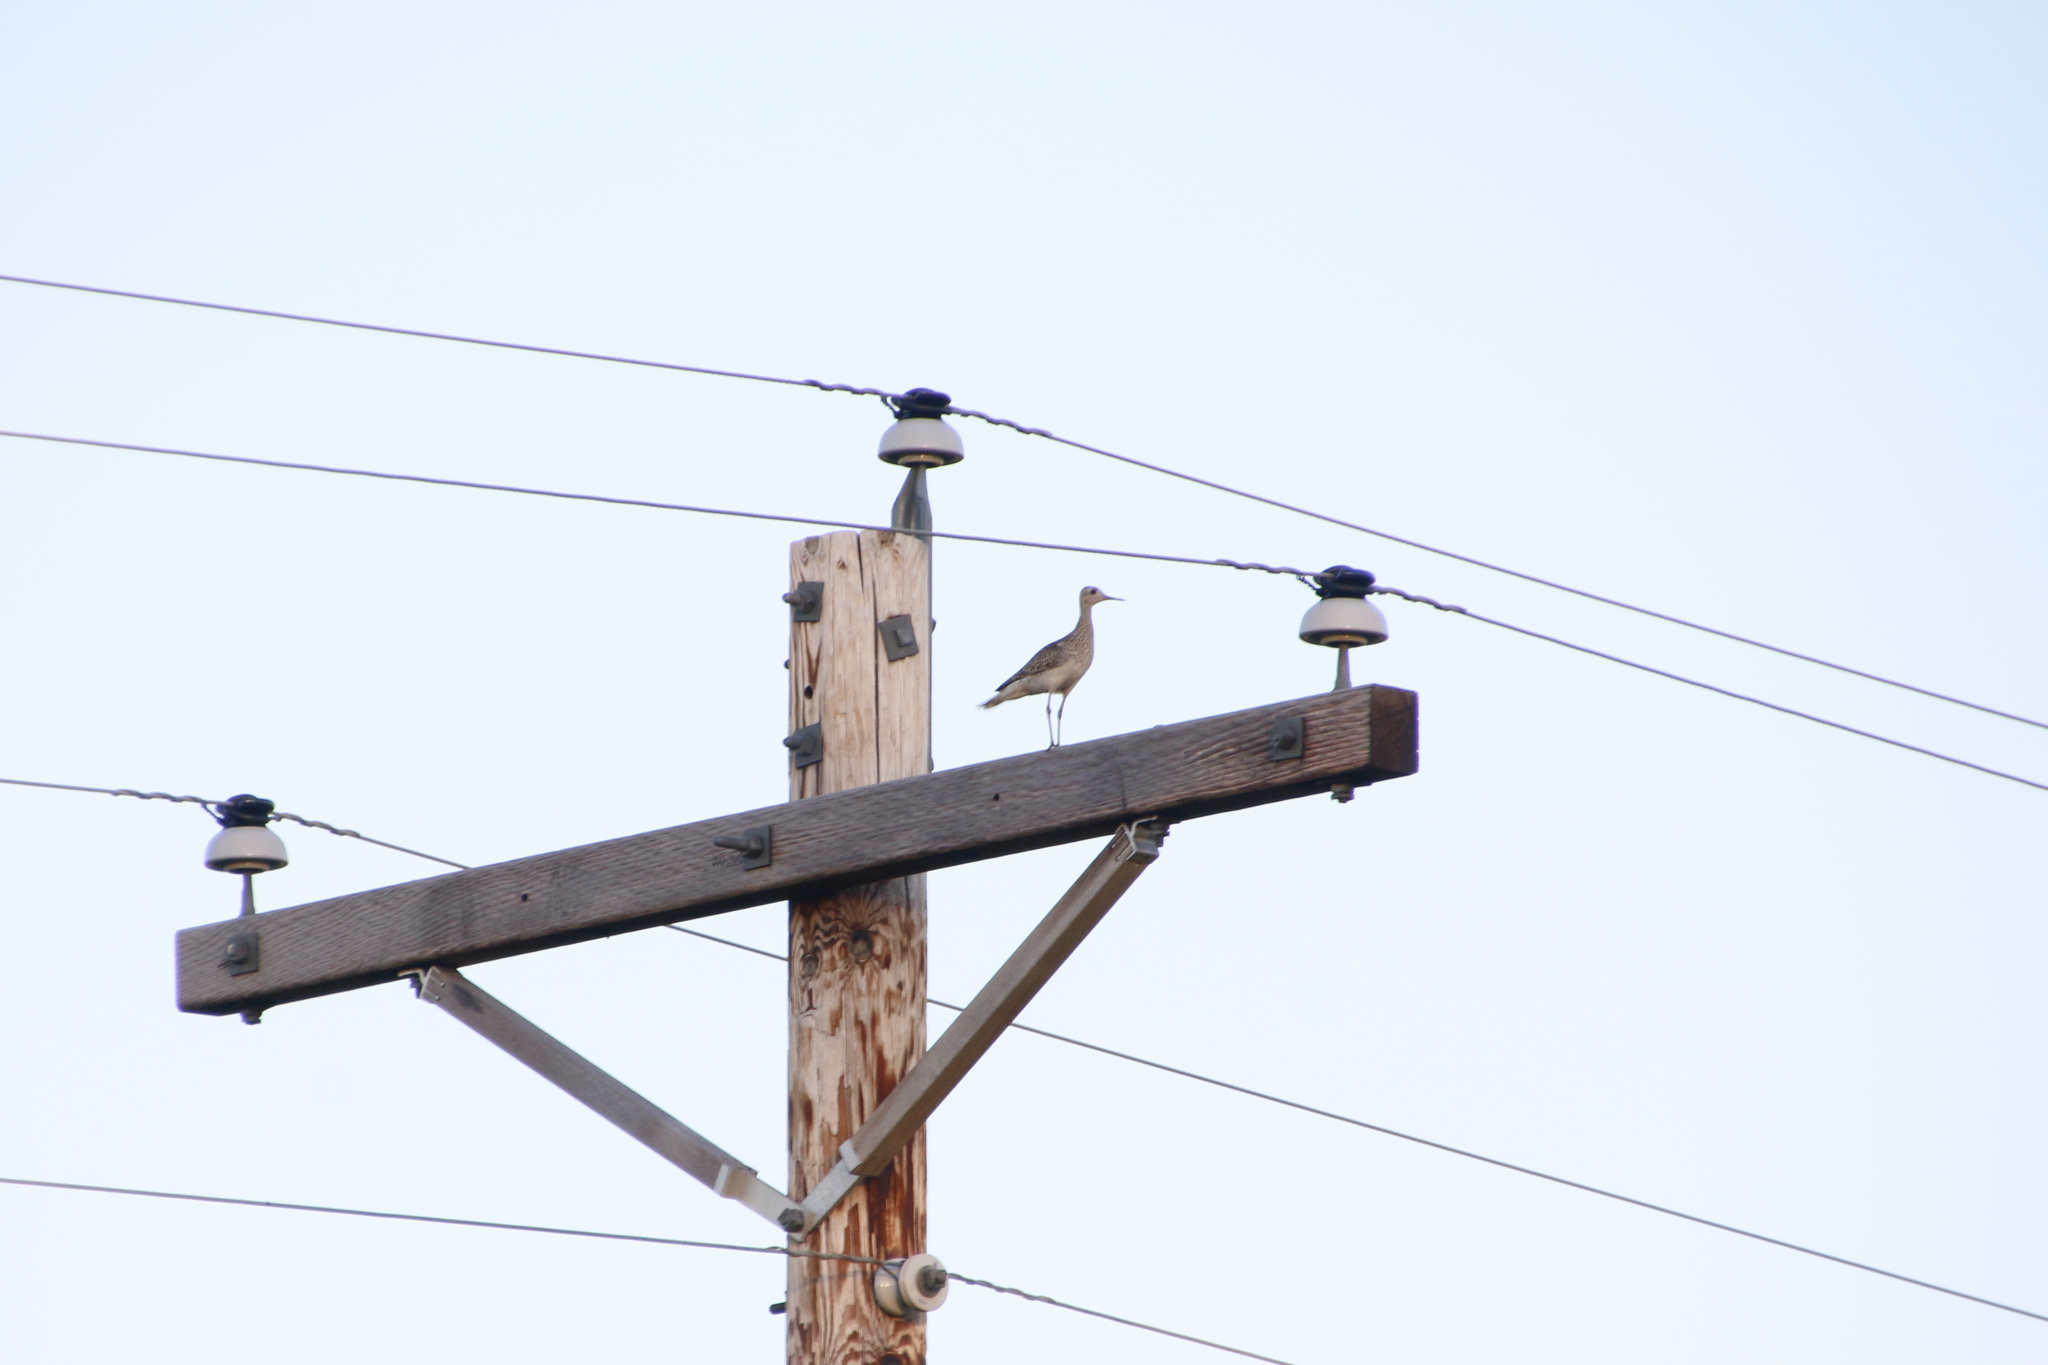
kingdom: Animalia
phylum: Chordata
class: Aves
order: Charadriiformes
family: Scolopacidae
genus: Bartramia
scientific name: Bartramia longicauda
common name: Upland sandpiper
